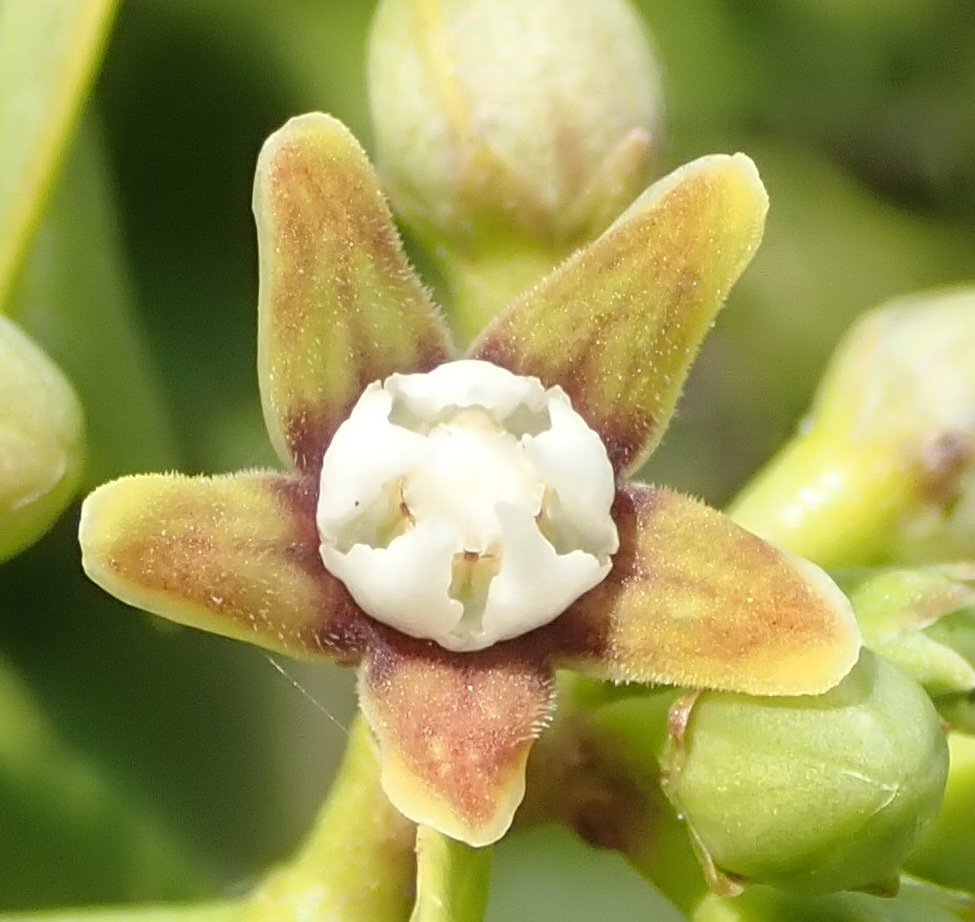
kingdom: Plantae
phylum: Tracheophyta
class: Magnoliopsida
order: Gentianales
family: Apocynaceae
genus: Cynanchum
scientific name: Cynanchum obtusifolium
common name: Monkey-rope
